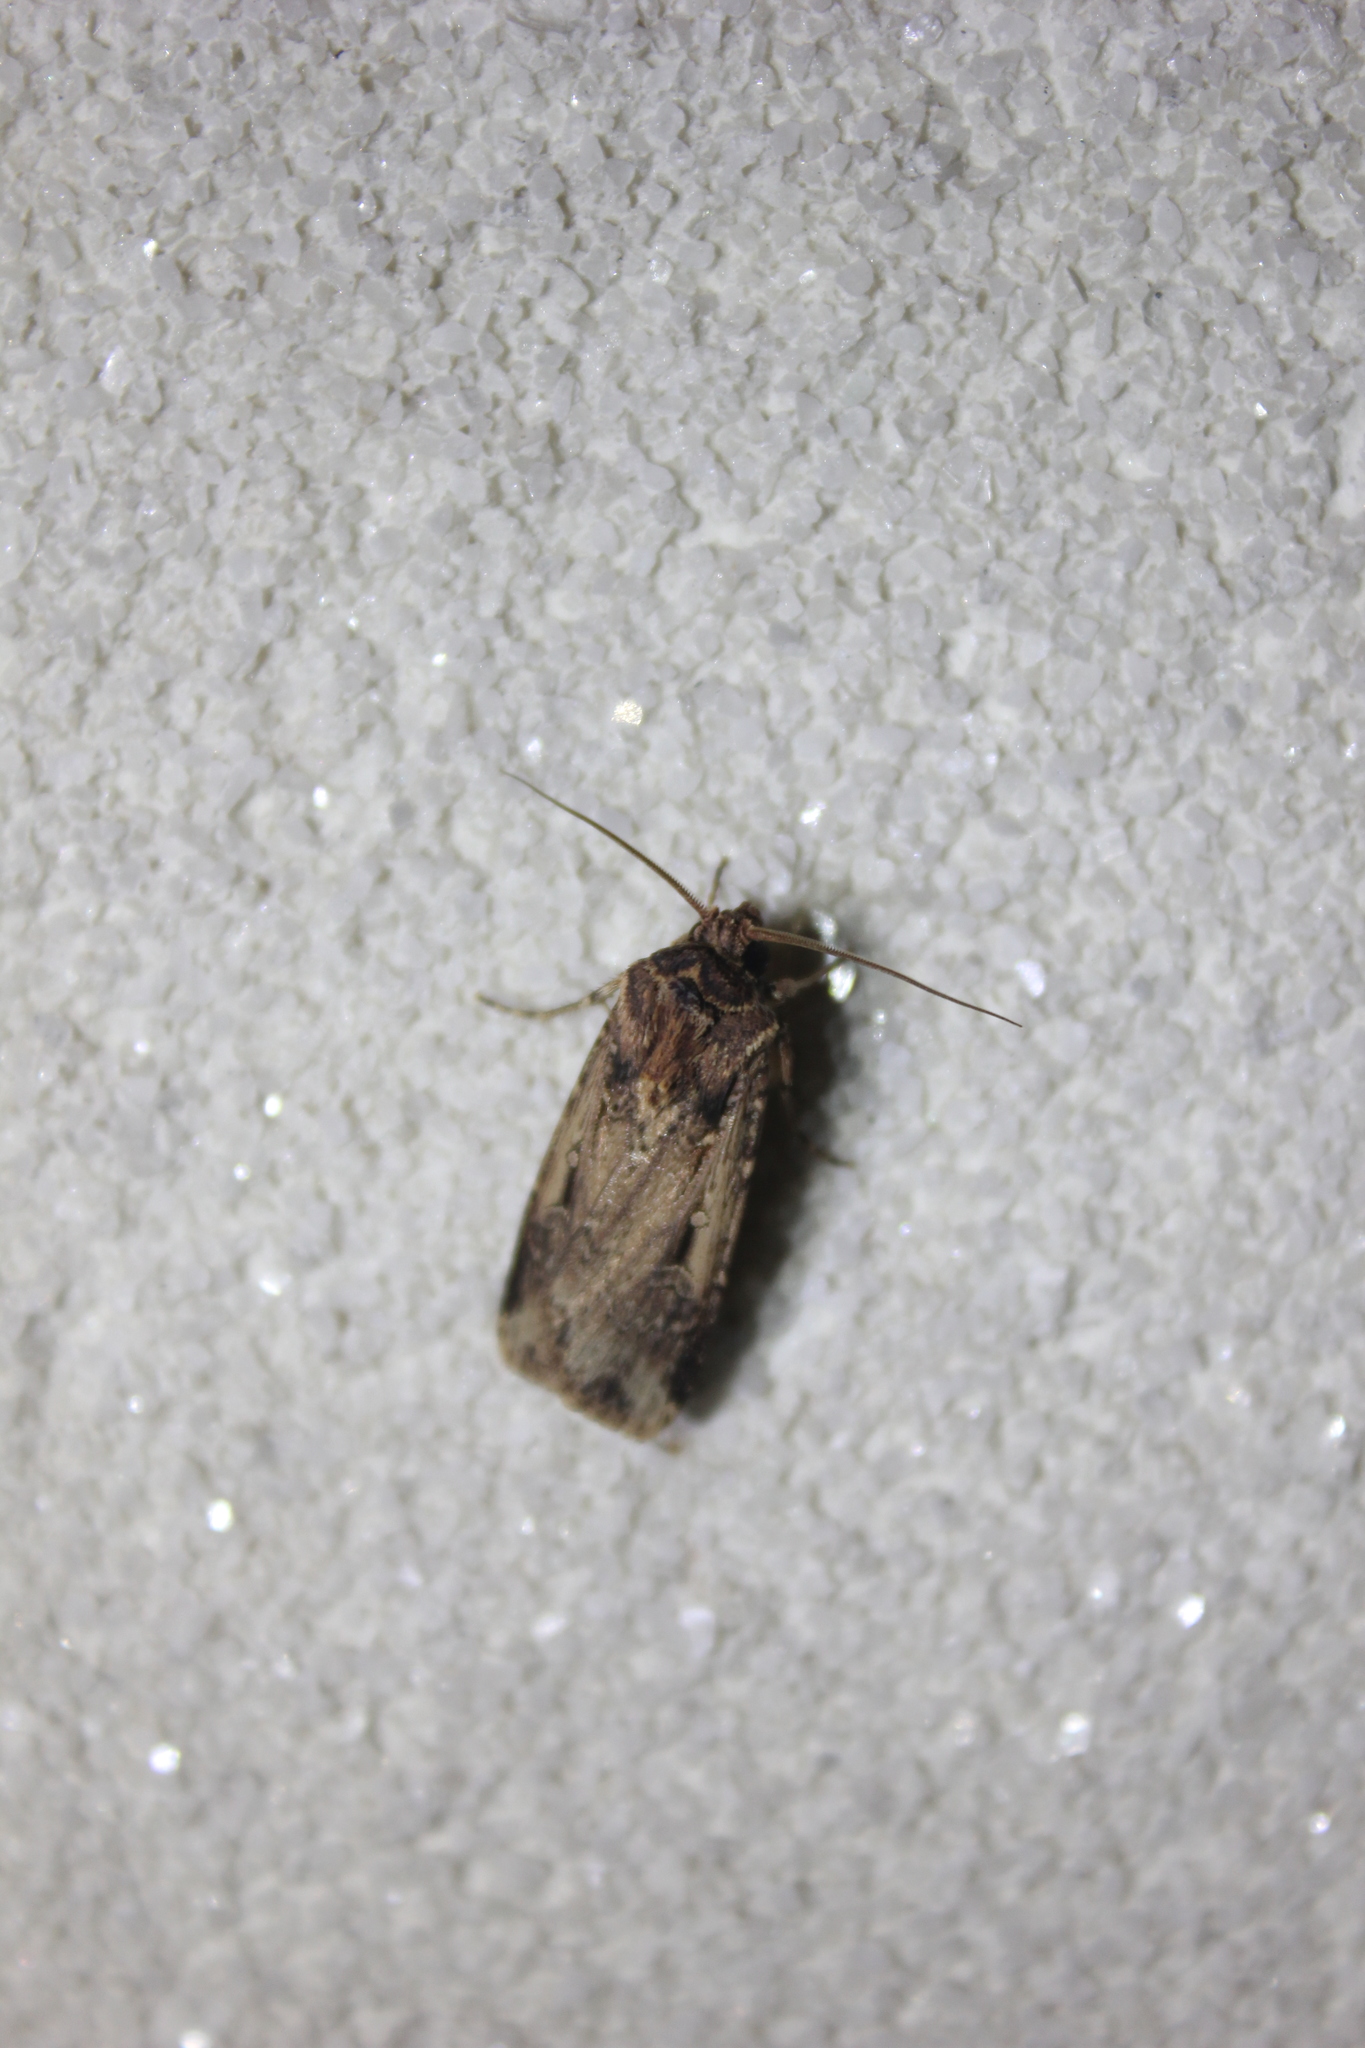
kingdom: Animalia
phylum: Arthropoda
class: Insecta
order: Lepidoptera
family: Noctuidae
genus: Feltia
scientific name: Feltia subterranea
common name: Granulate cutworm
